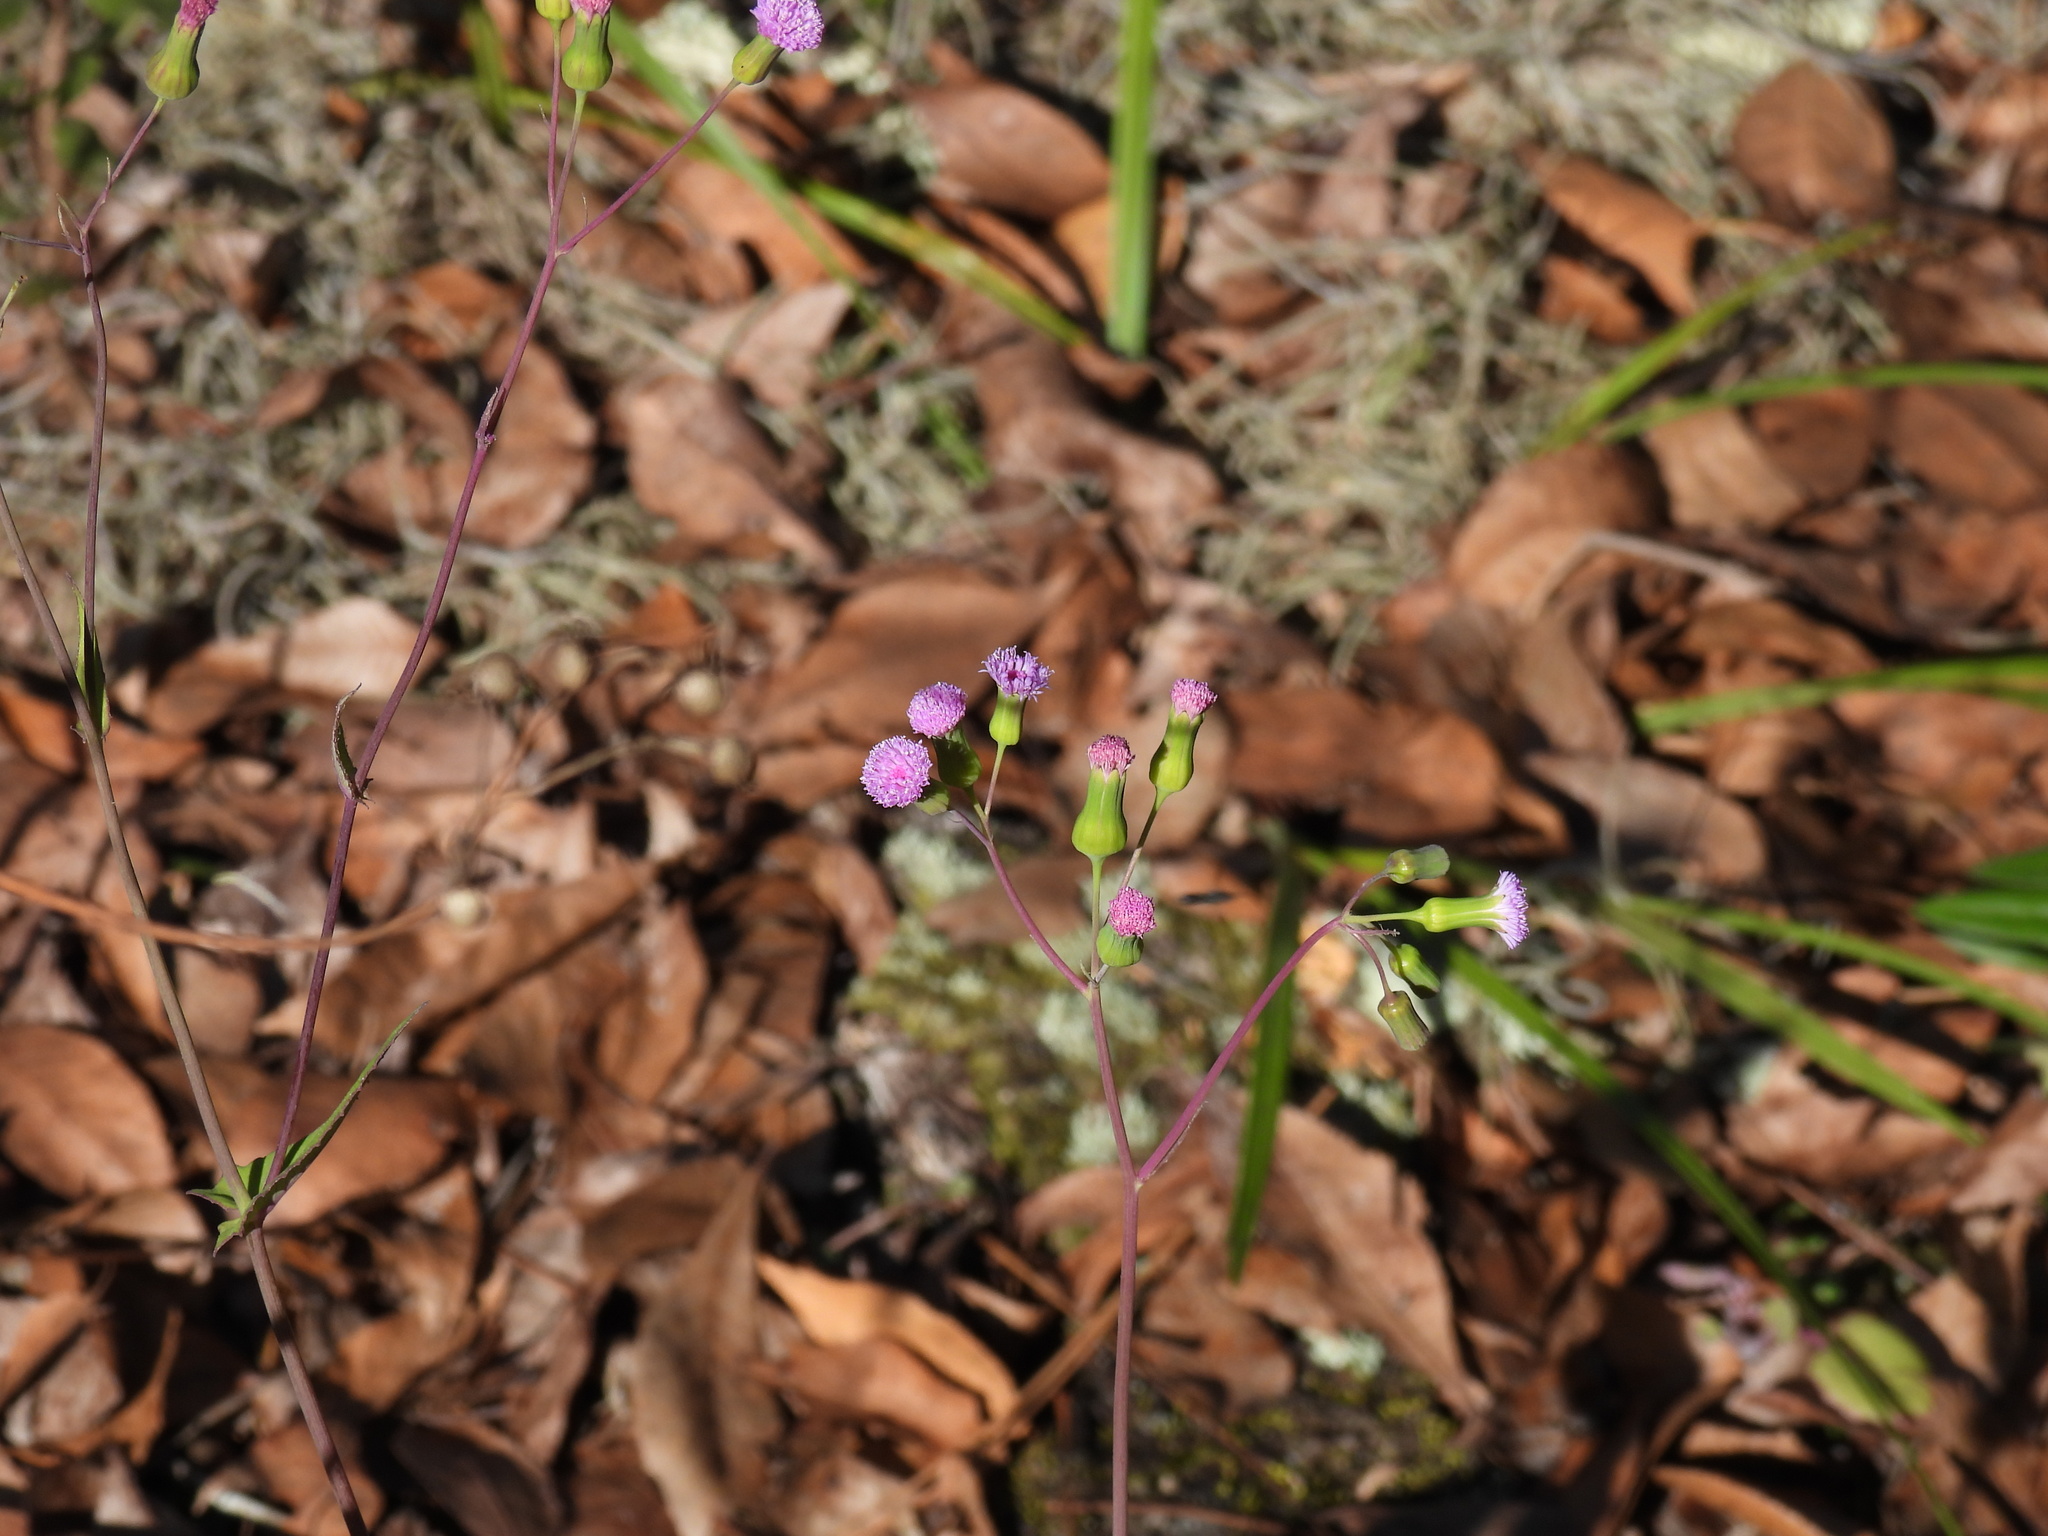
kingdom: Plantae
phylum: Tracheophyta
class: Magnoliopsida
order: Asterales
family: Asteraceae
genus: Emilia
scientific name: Emilia sonchifolia
